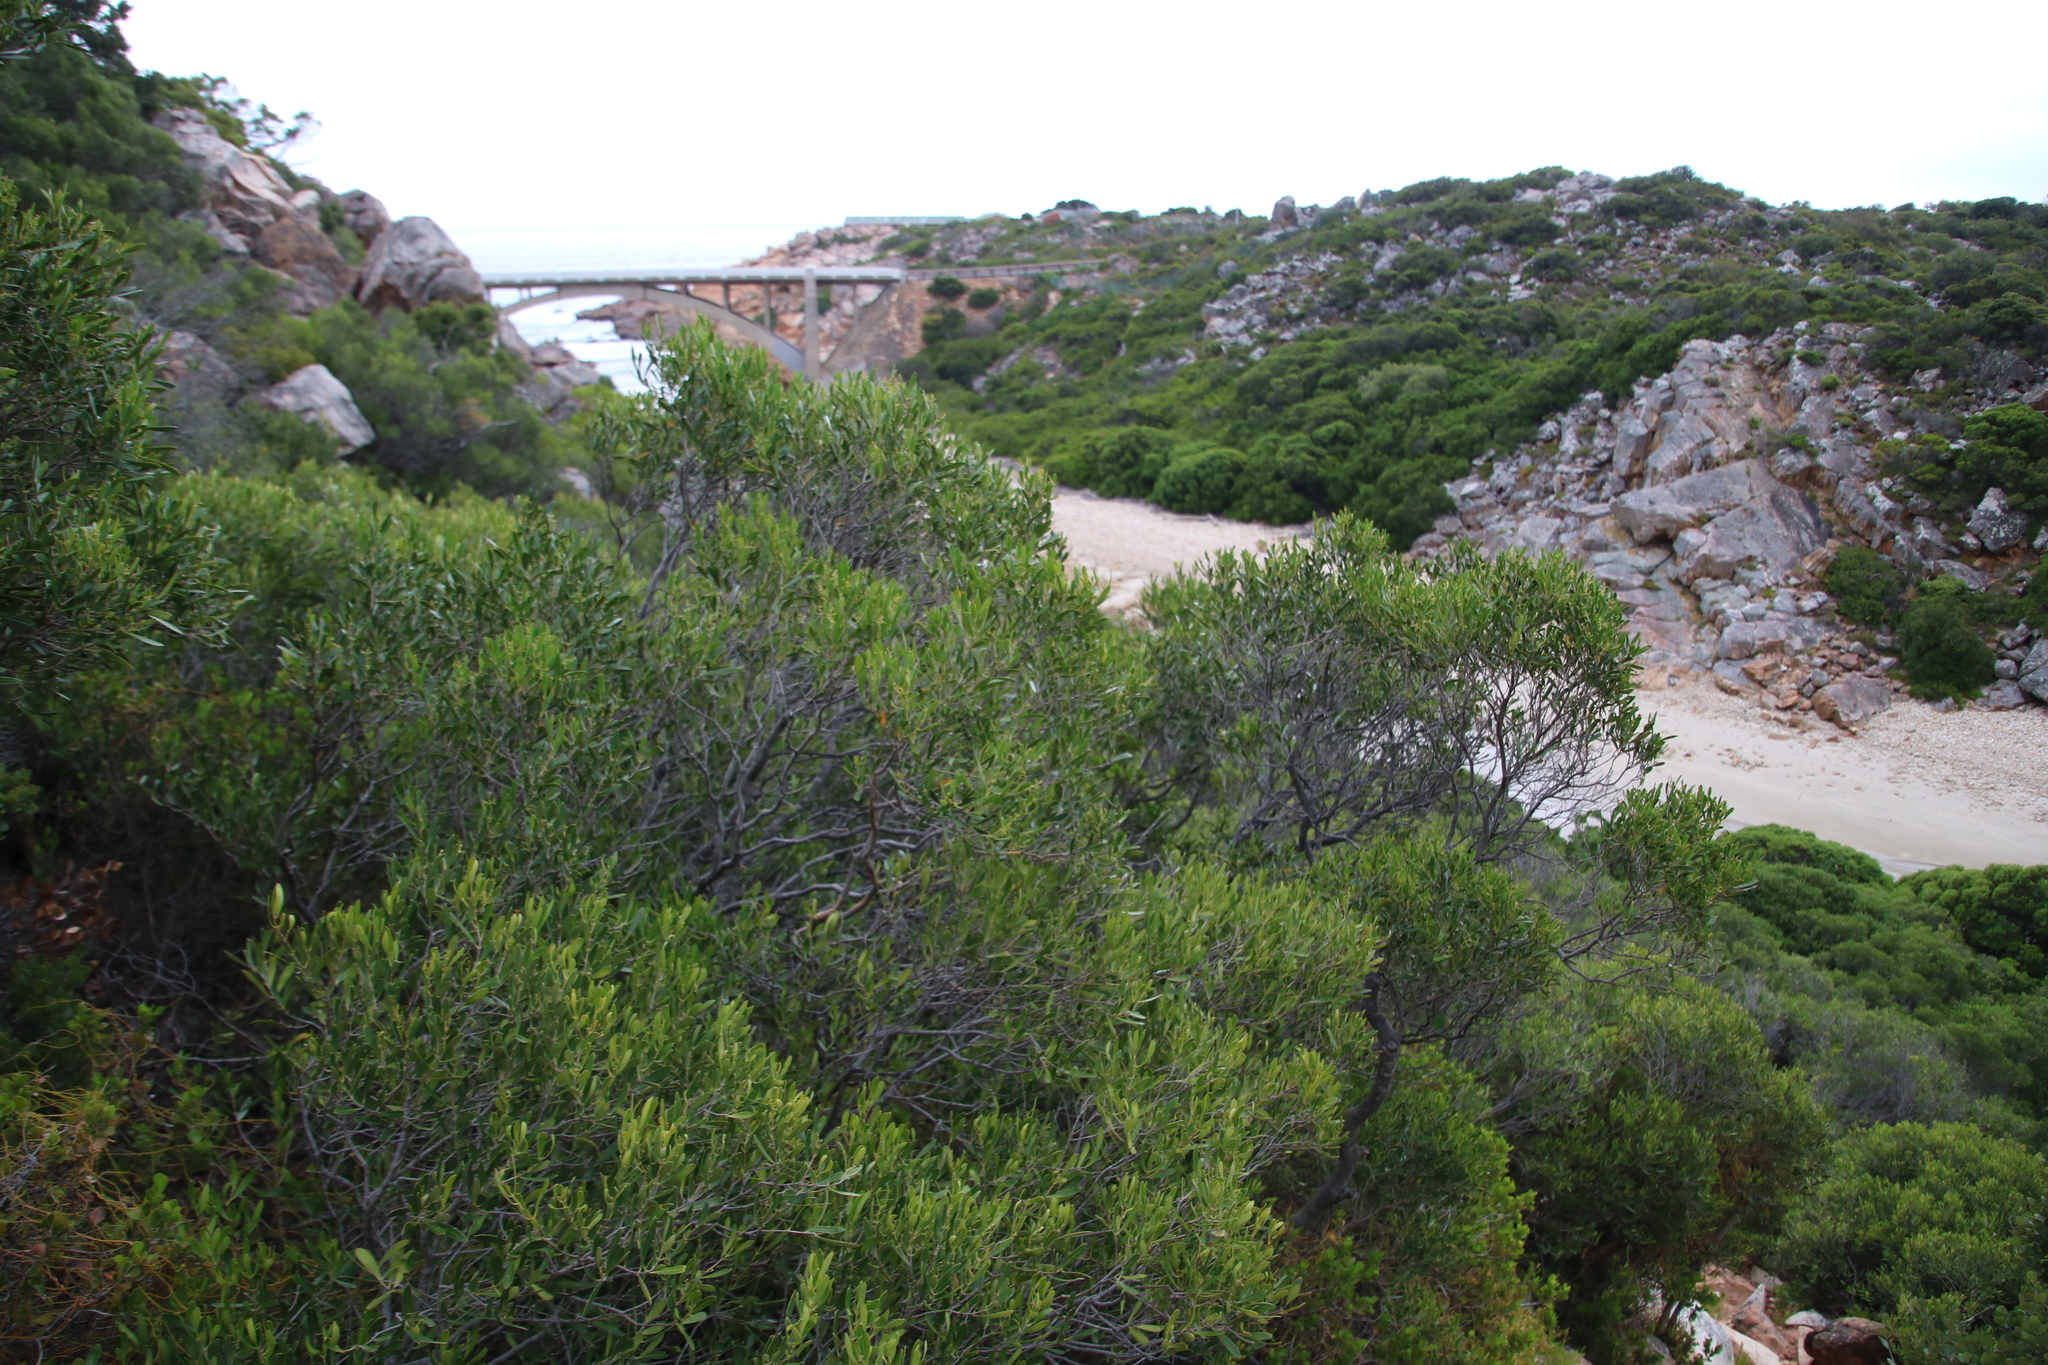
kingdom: Plantae
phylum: Tracheophyta
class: Magnoliopsida
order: Lamiales
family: Oleaceae
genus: Olea
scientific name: Olea exasperata
